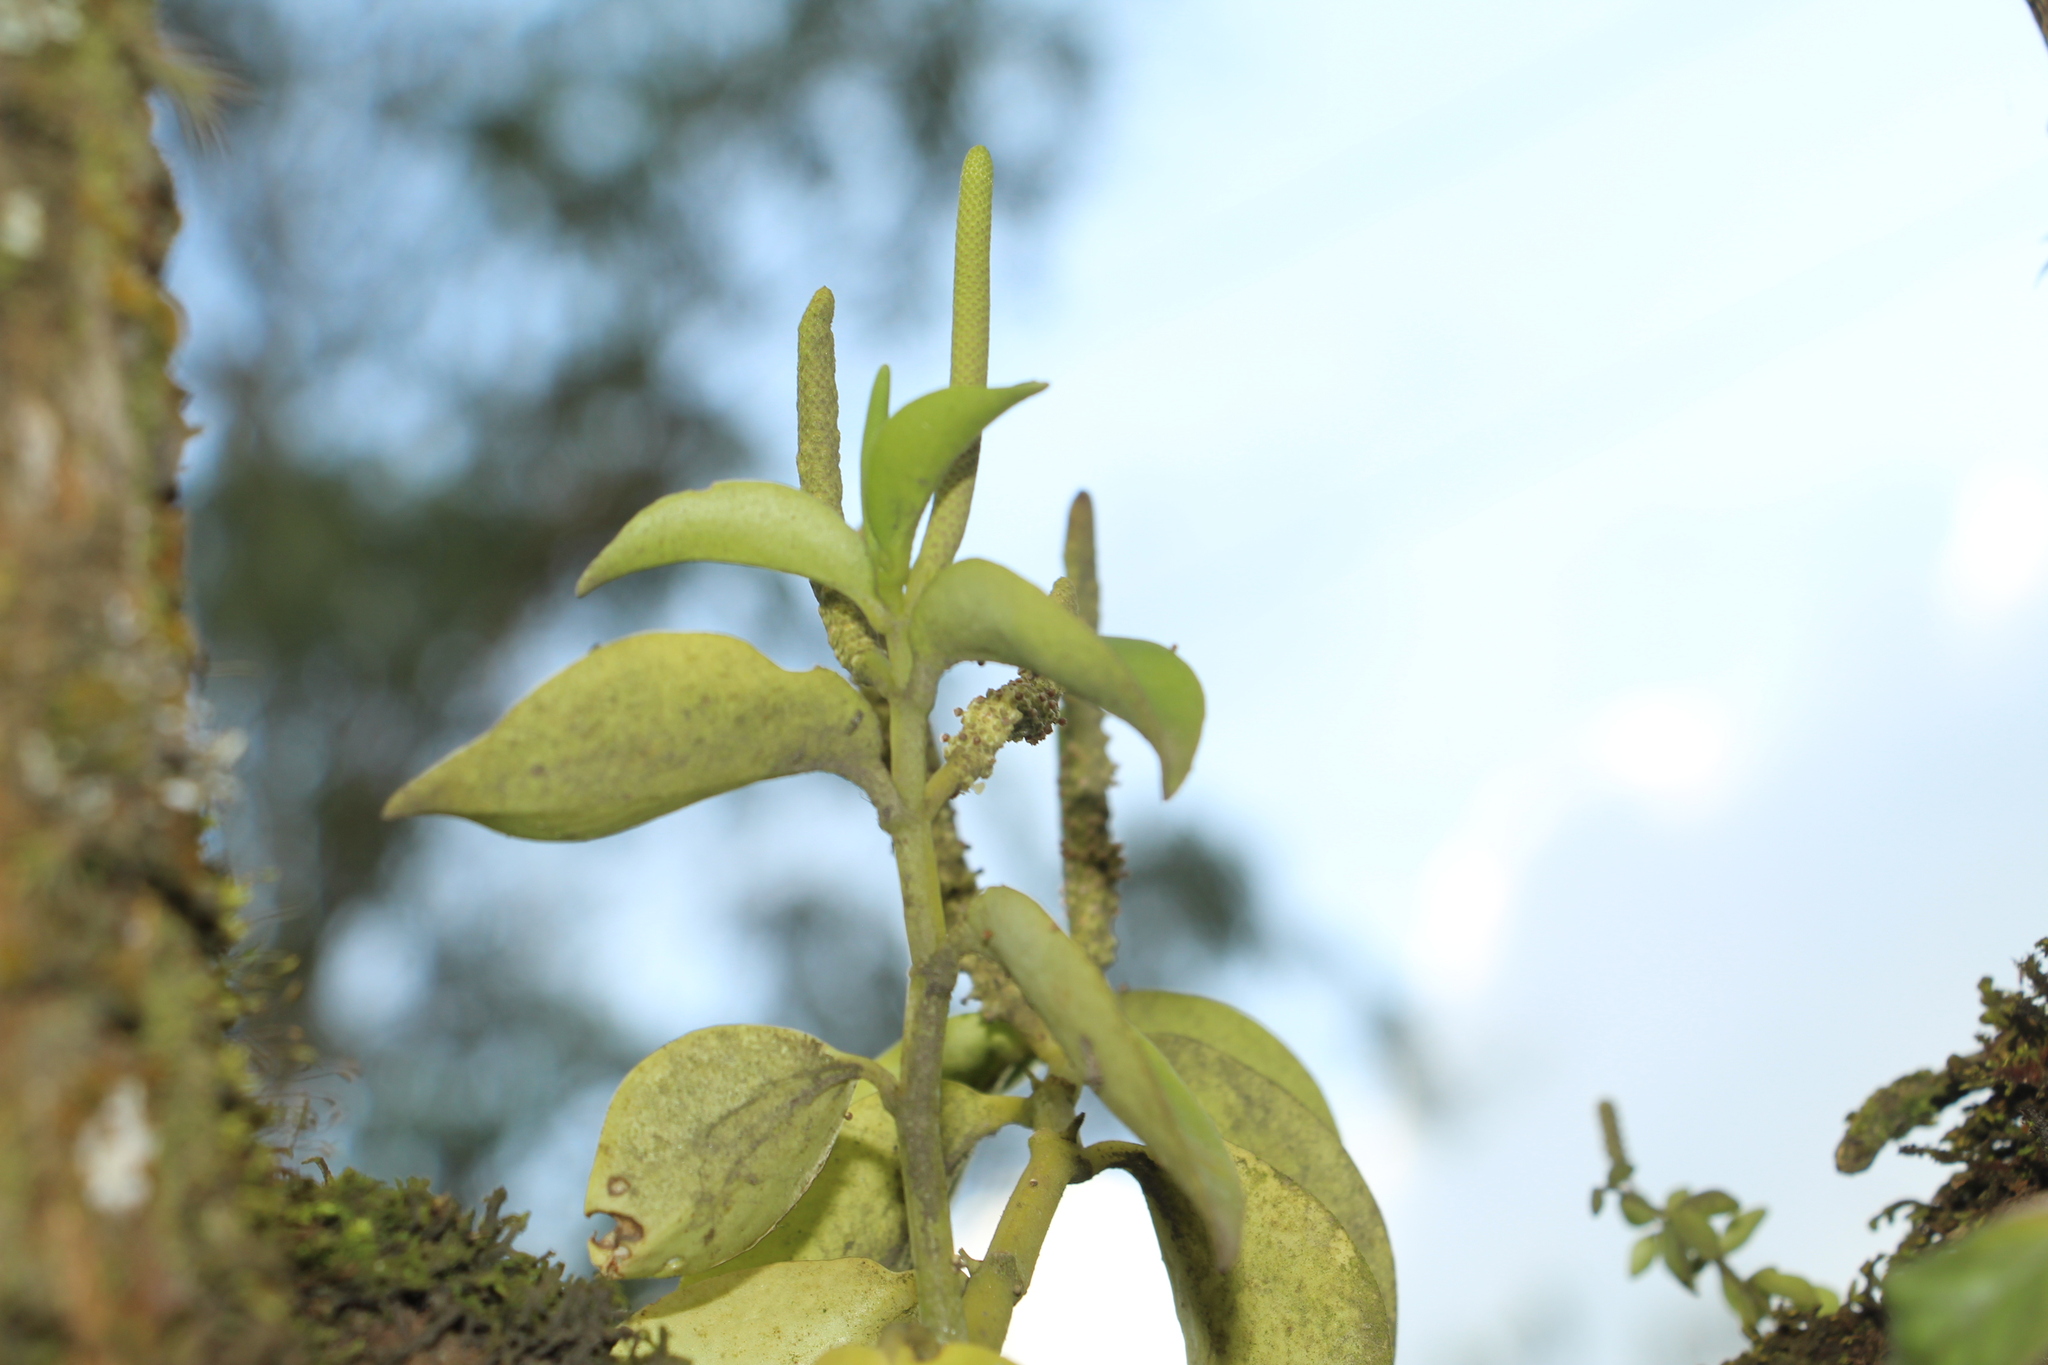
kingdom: Plantae
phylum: Tracheophyta
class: Magnoliopsida
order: Piperales
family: Piperaceae
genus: Peperomia
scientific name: Peperomia trianae
